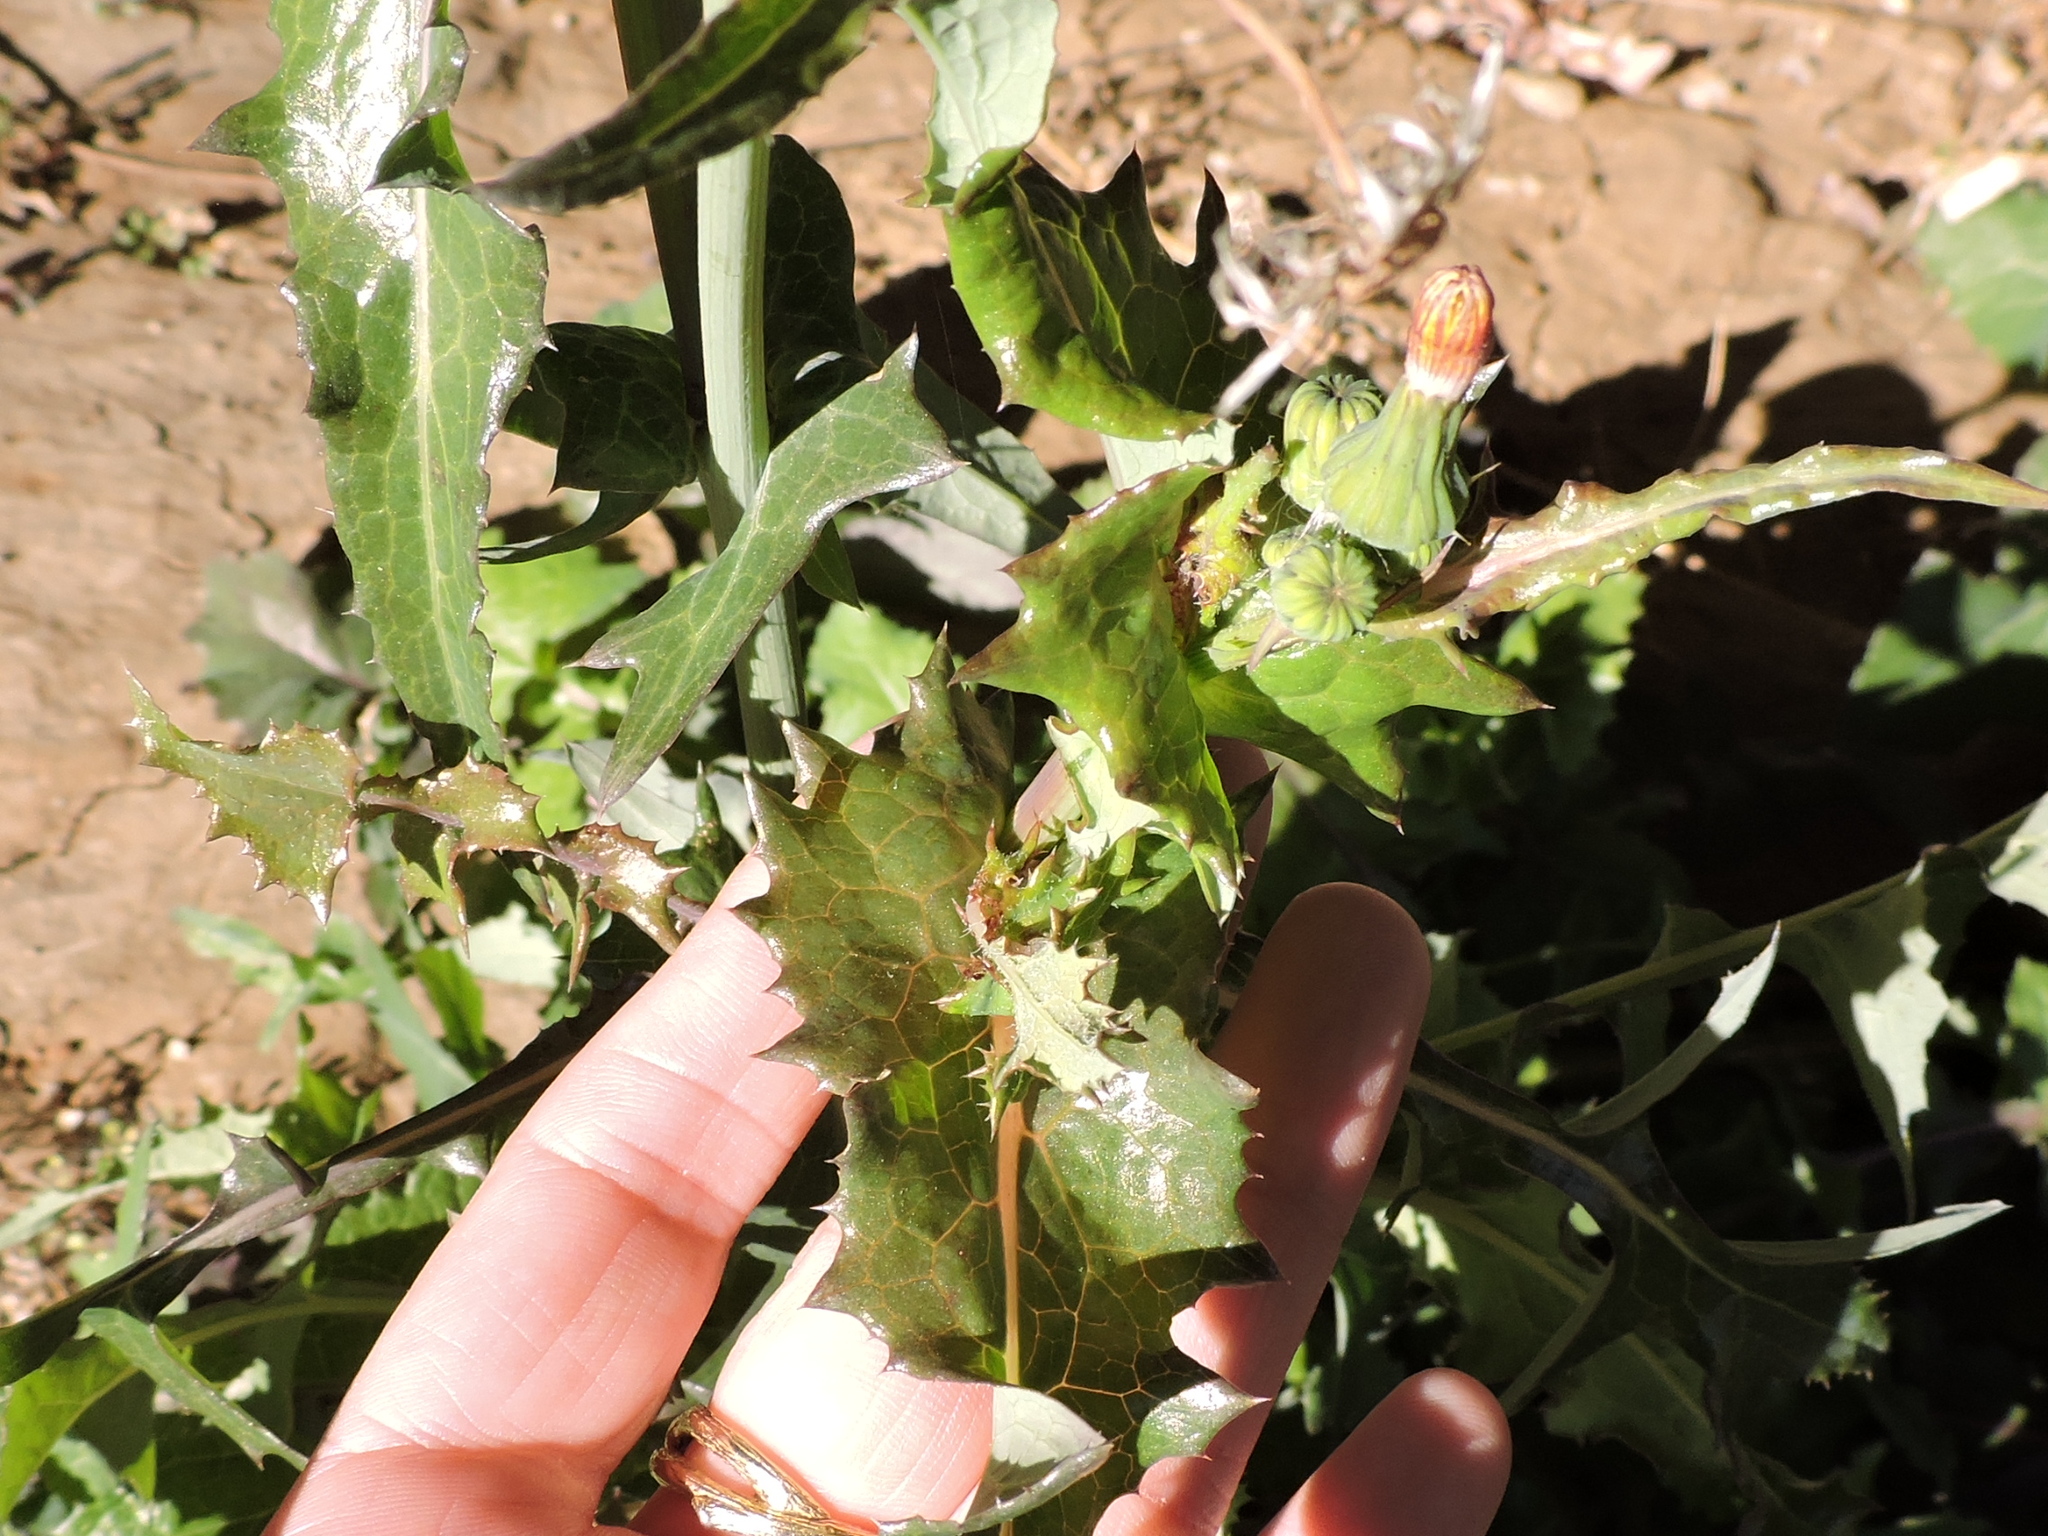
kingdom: Plantae
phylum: Tracheophyta
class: Magnoliopsida
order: Asterales
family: Asteraceae
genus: Sonchus
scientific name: Sonchus asper
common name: Prickly sow-thistle
